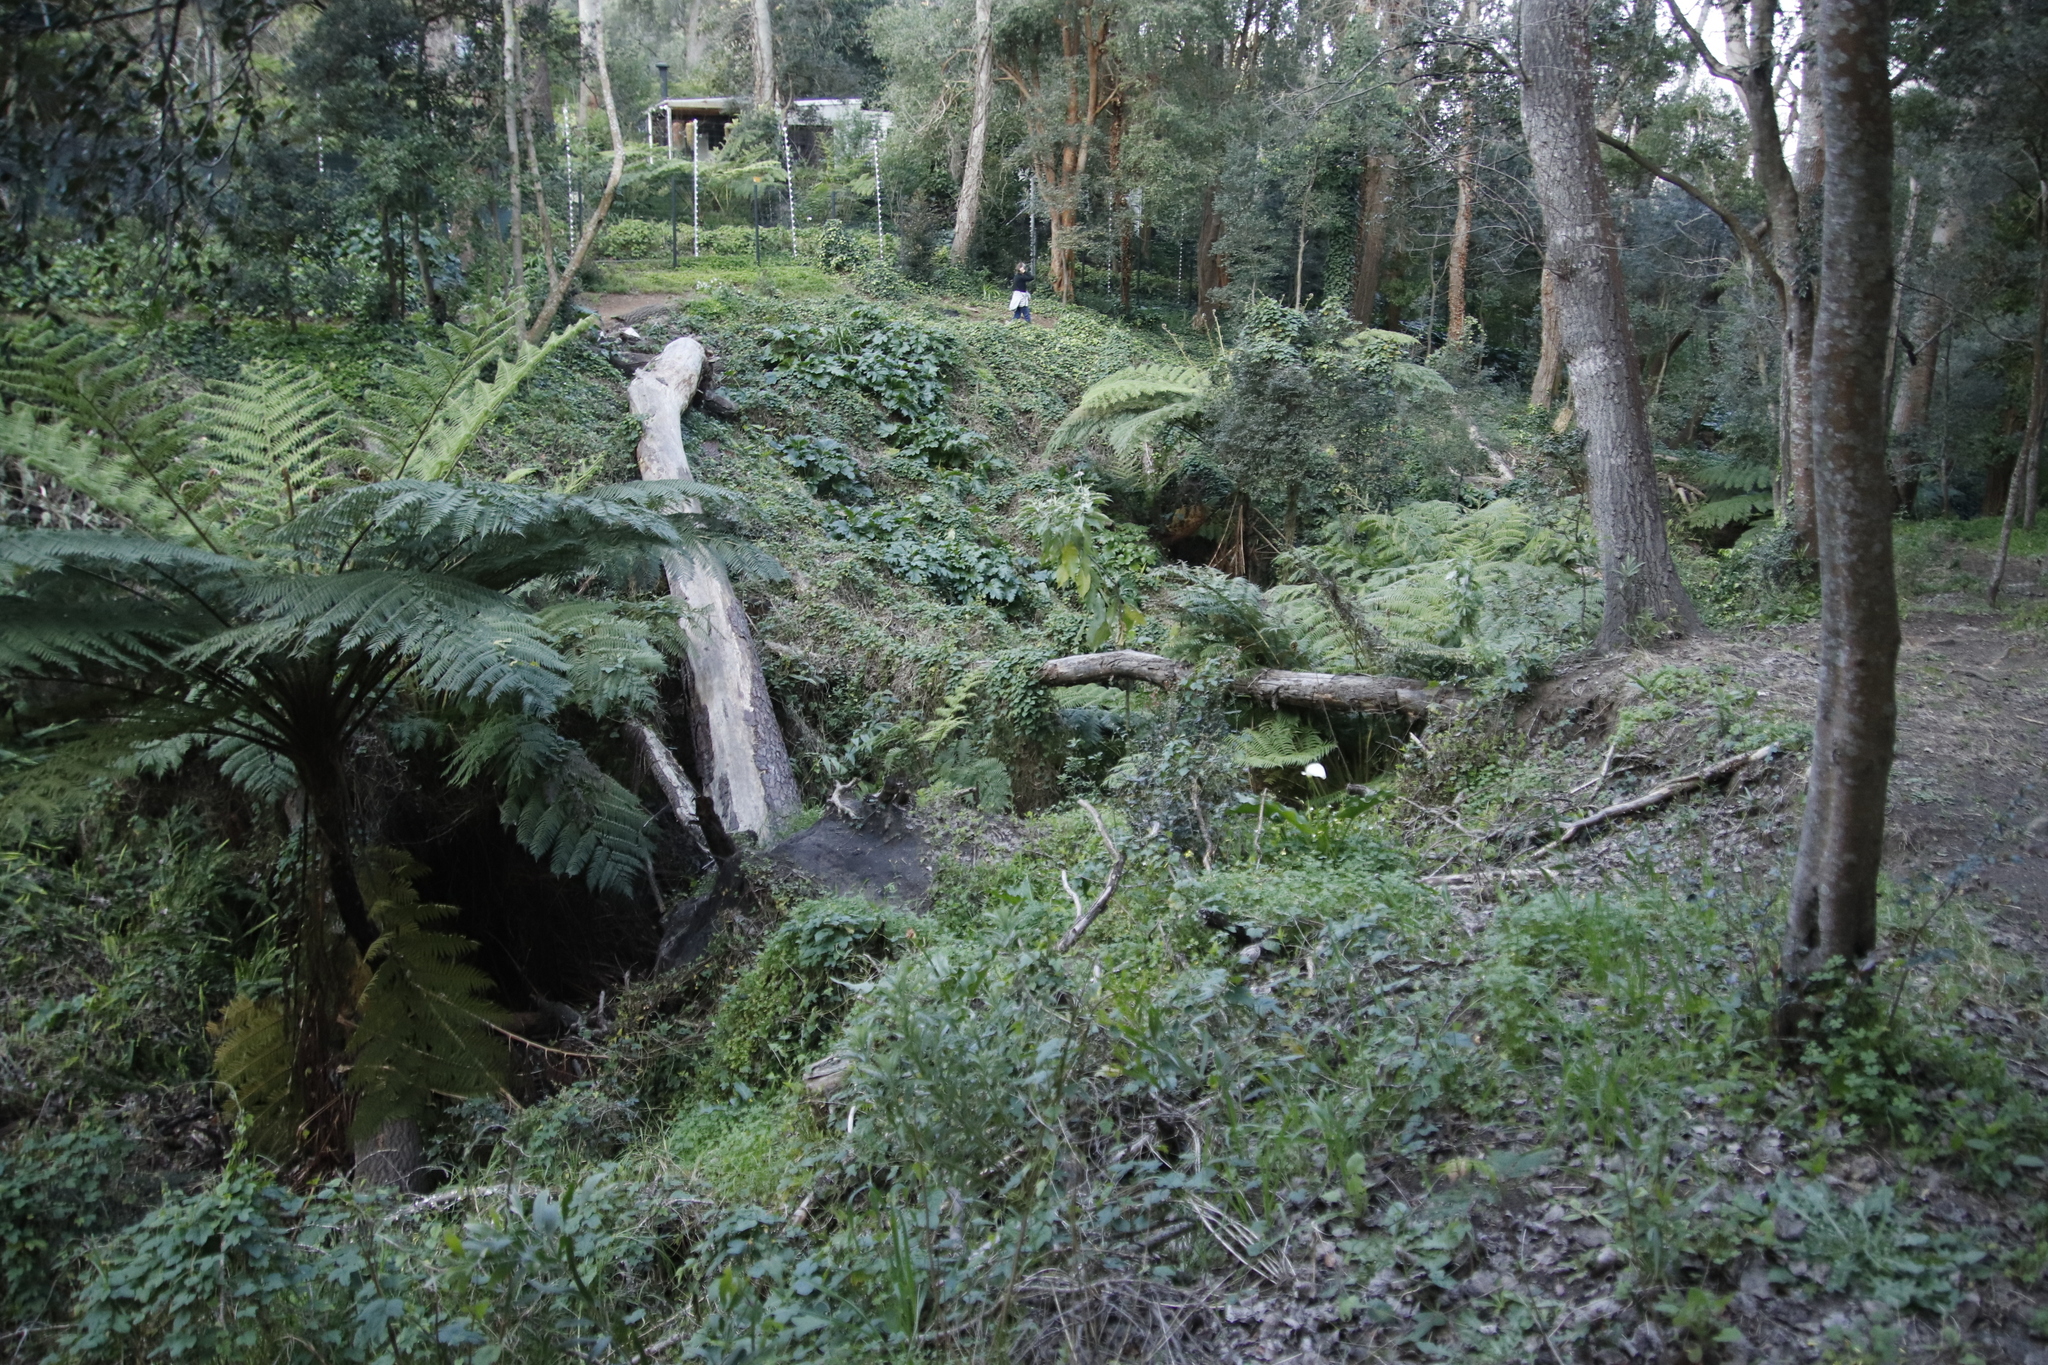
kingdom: Plantae
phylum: Tracheophyta
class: Polypodiopsida
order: Cyatheales
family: Cyatheaceae
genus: Sphaeropteris
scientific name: Sphaeropteris cooperi
